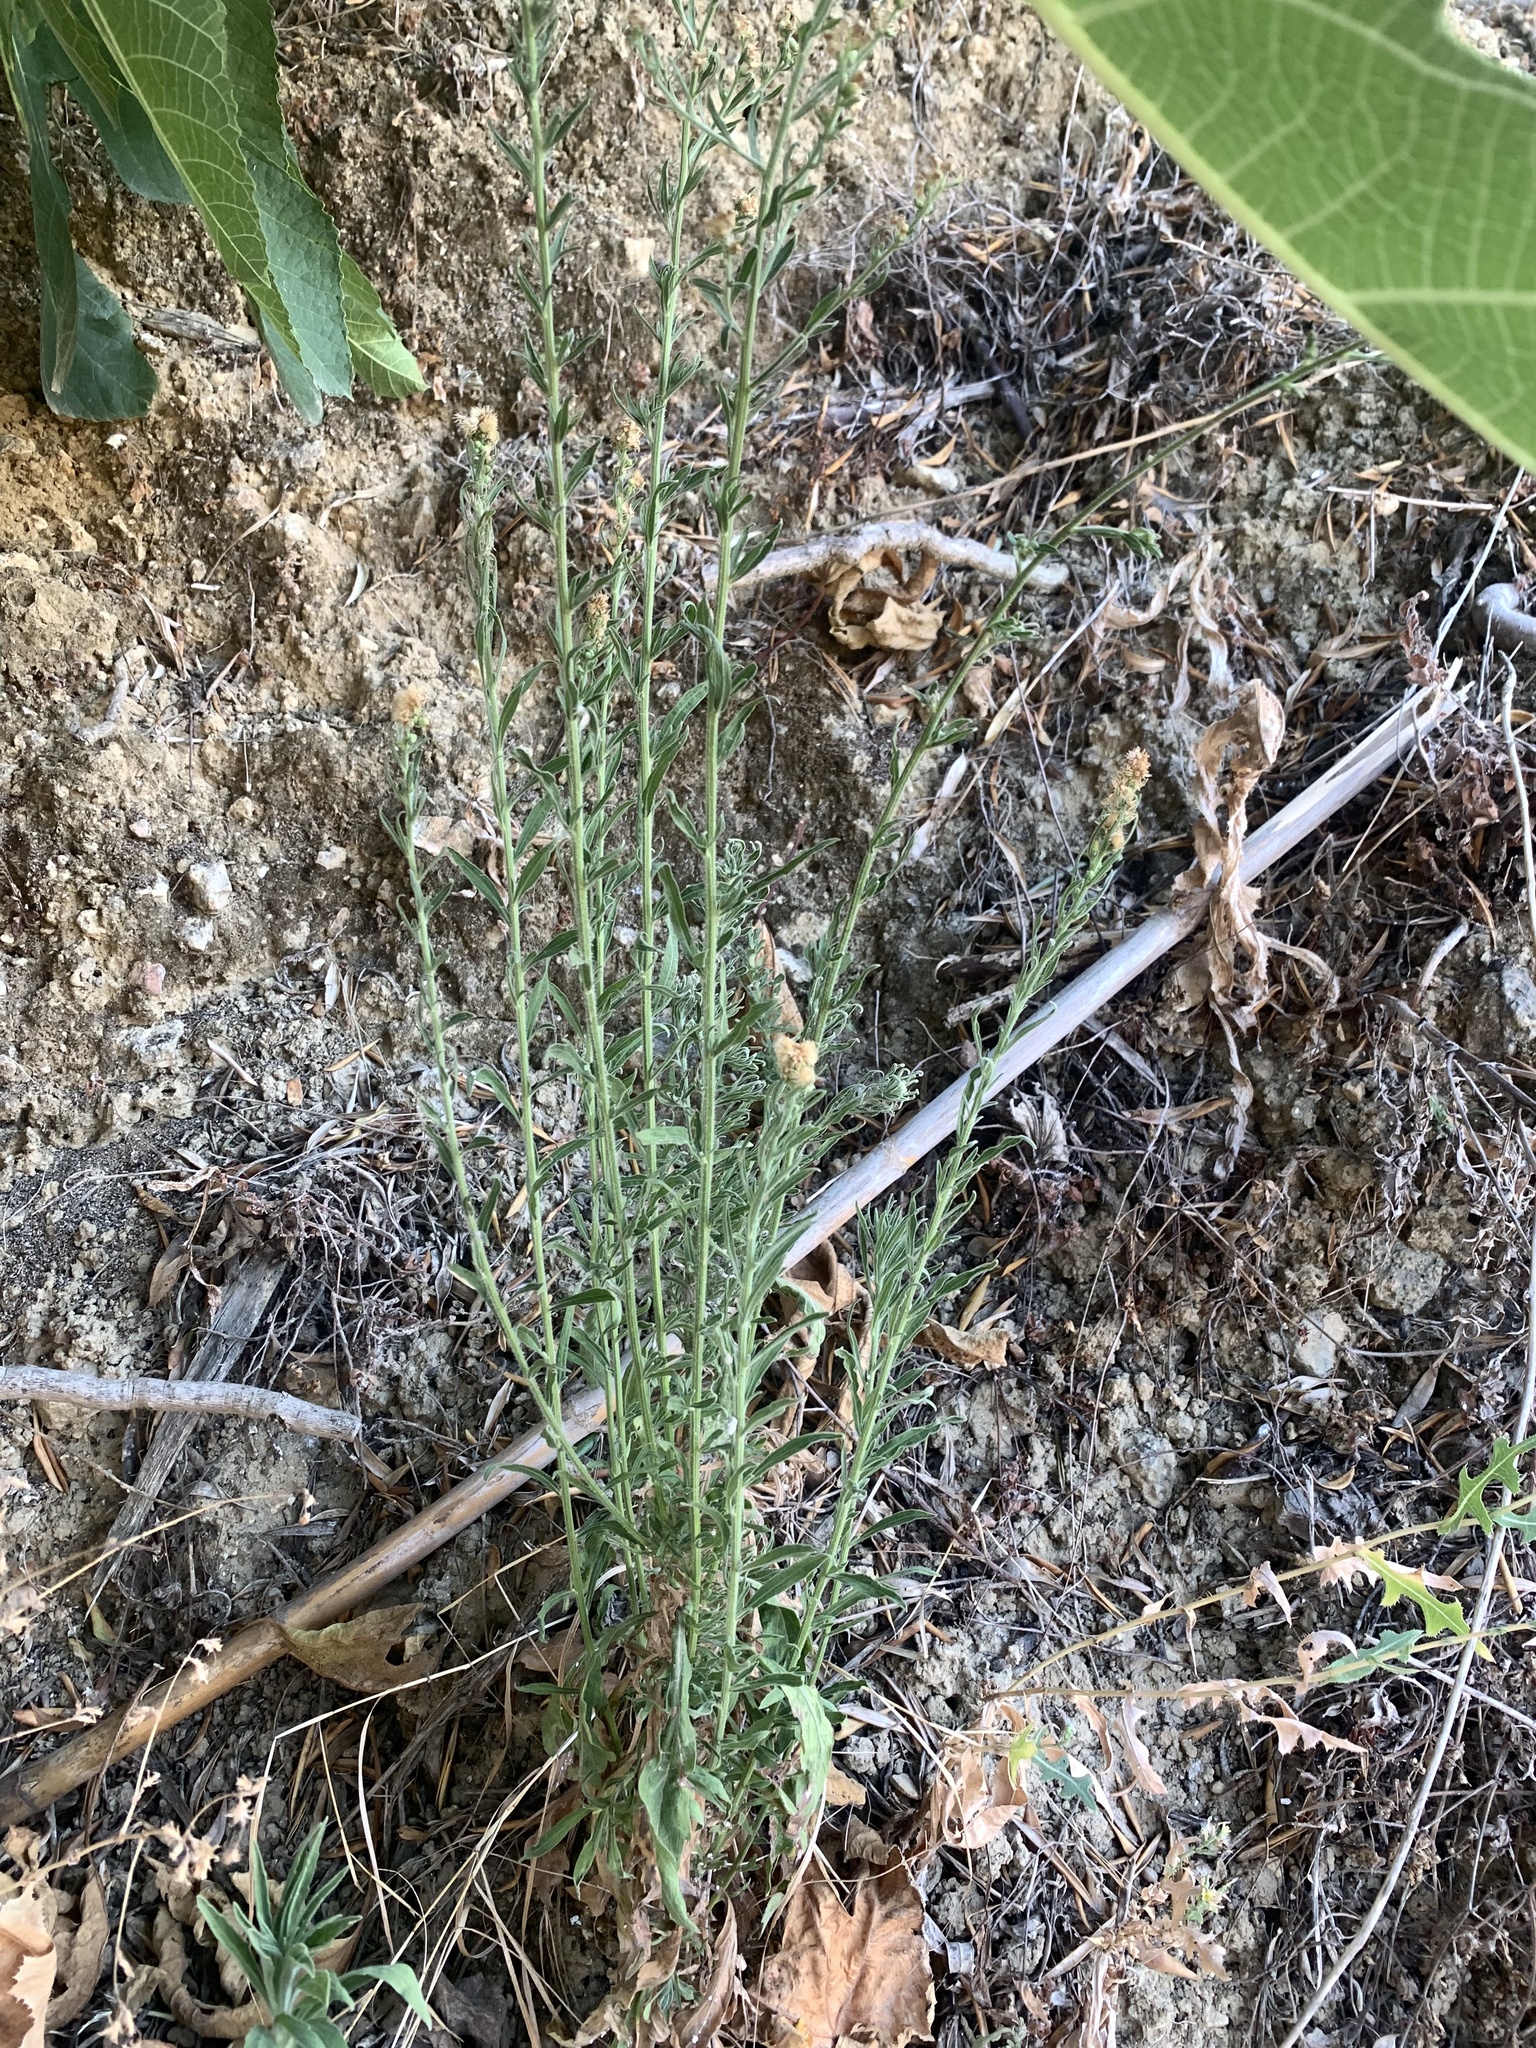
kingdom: Plantae
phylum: Tracheophyta
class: Magnoliopsida
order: Asterales
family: Asteraceae
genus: Lactuca
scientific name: Lactuca serriola
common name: Prickly lettuce
